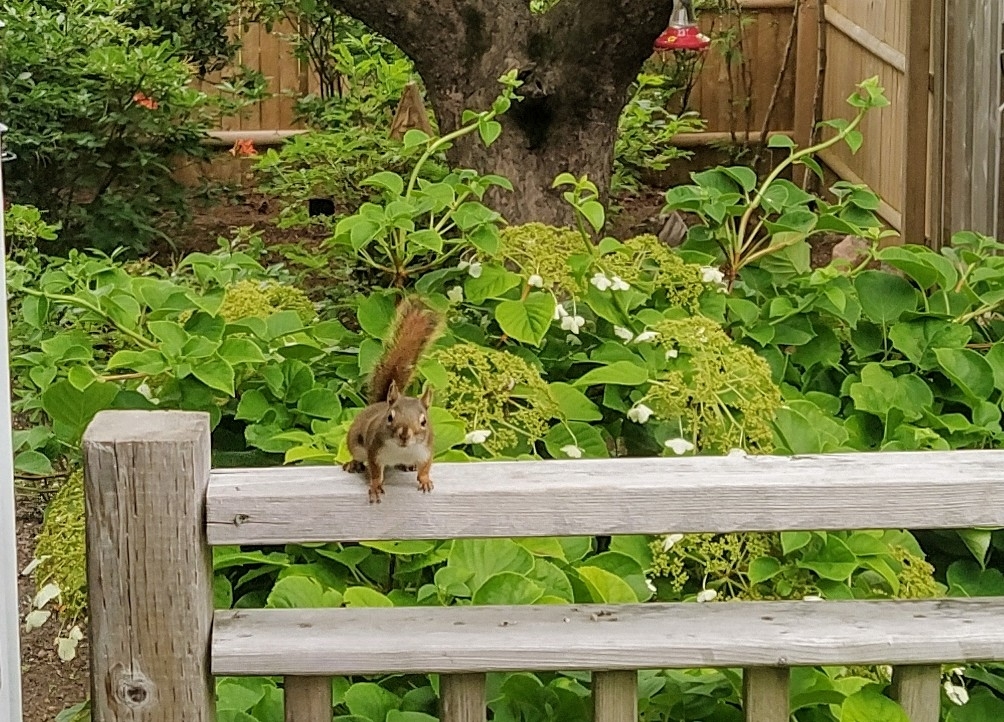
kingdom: Animalia
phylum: Chordata
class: Mammalia
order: Rodentia
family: Sciuridae
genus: Tamiasciurus
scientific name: Tamiasciurus hudsonicus
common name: Red squirrel
